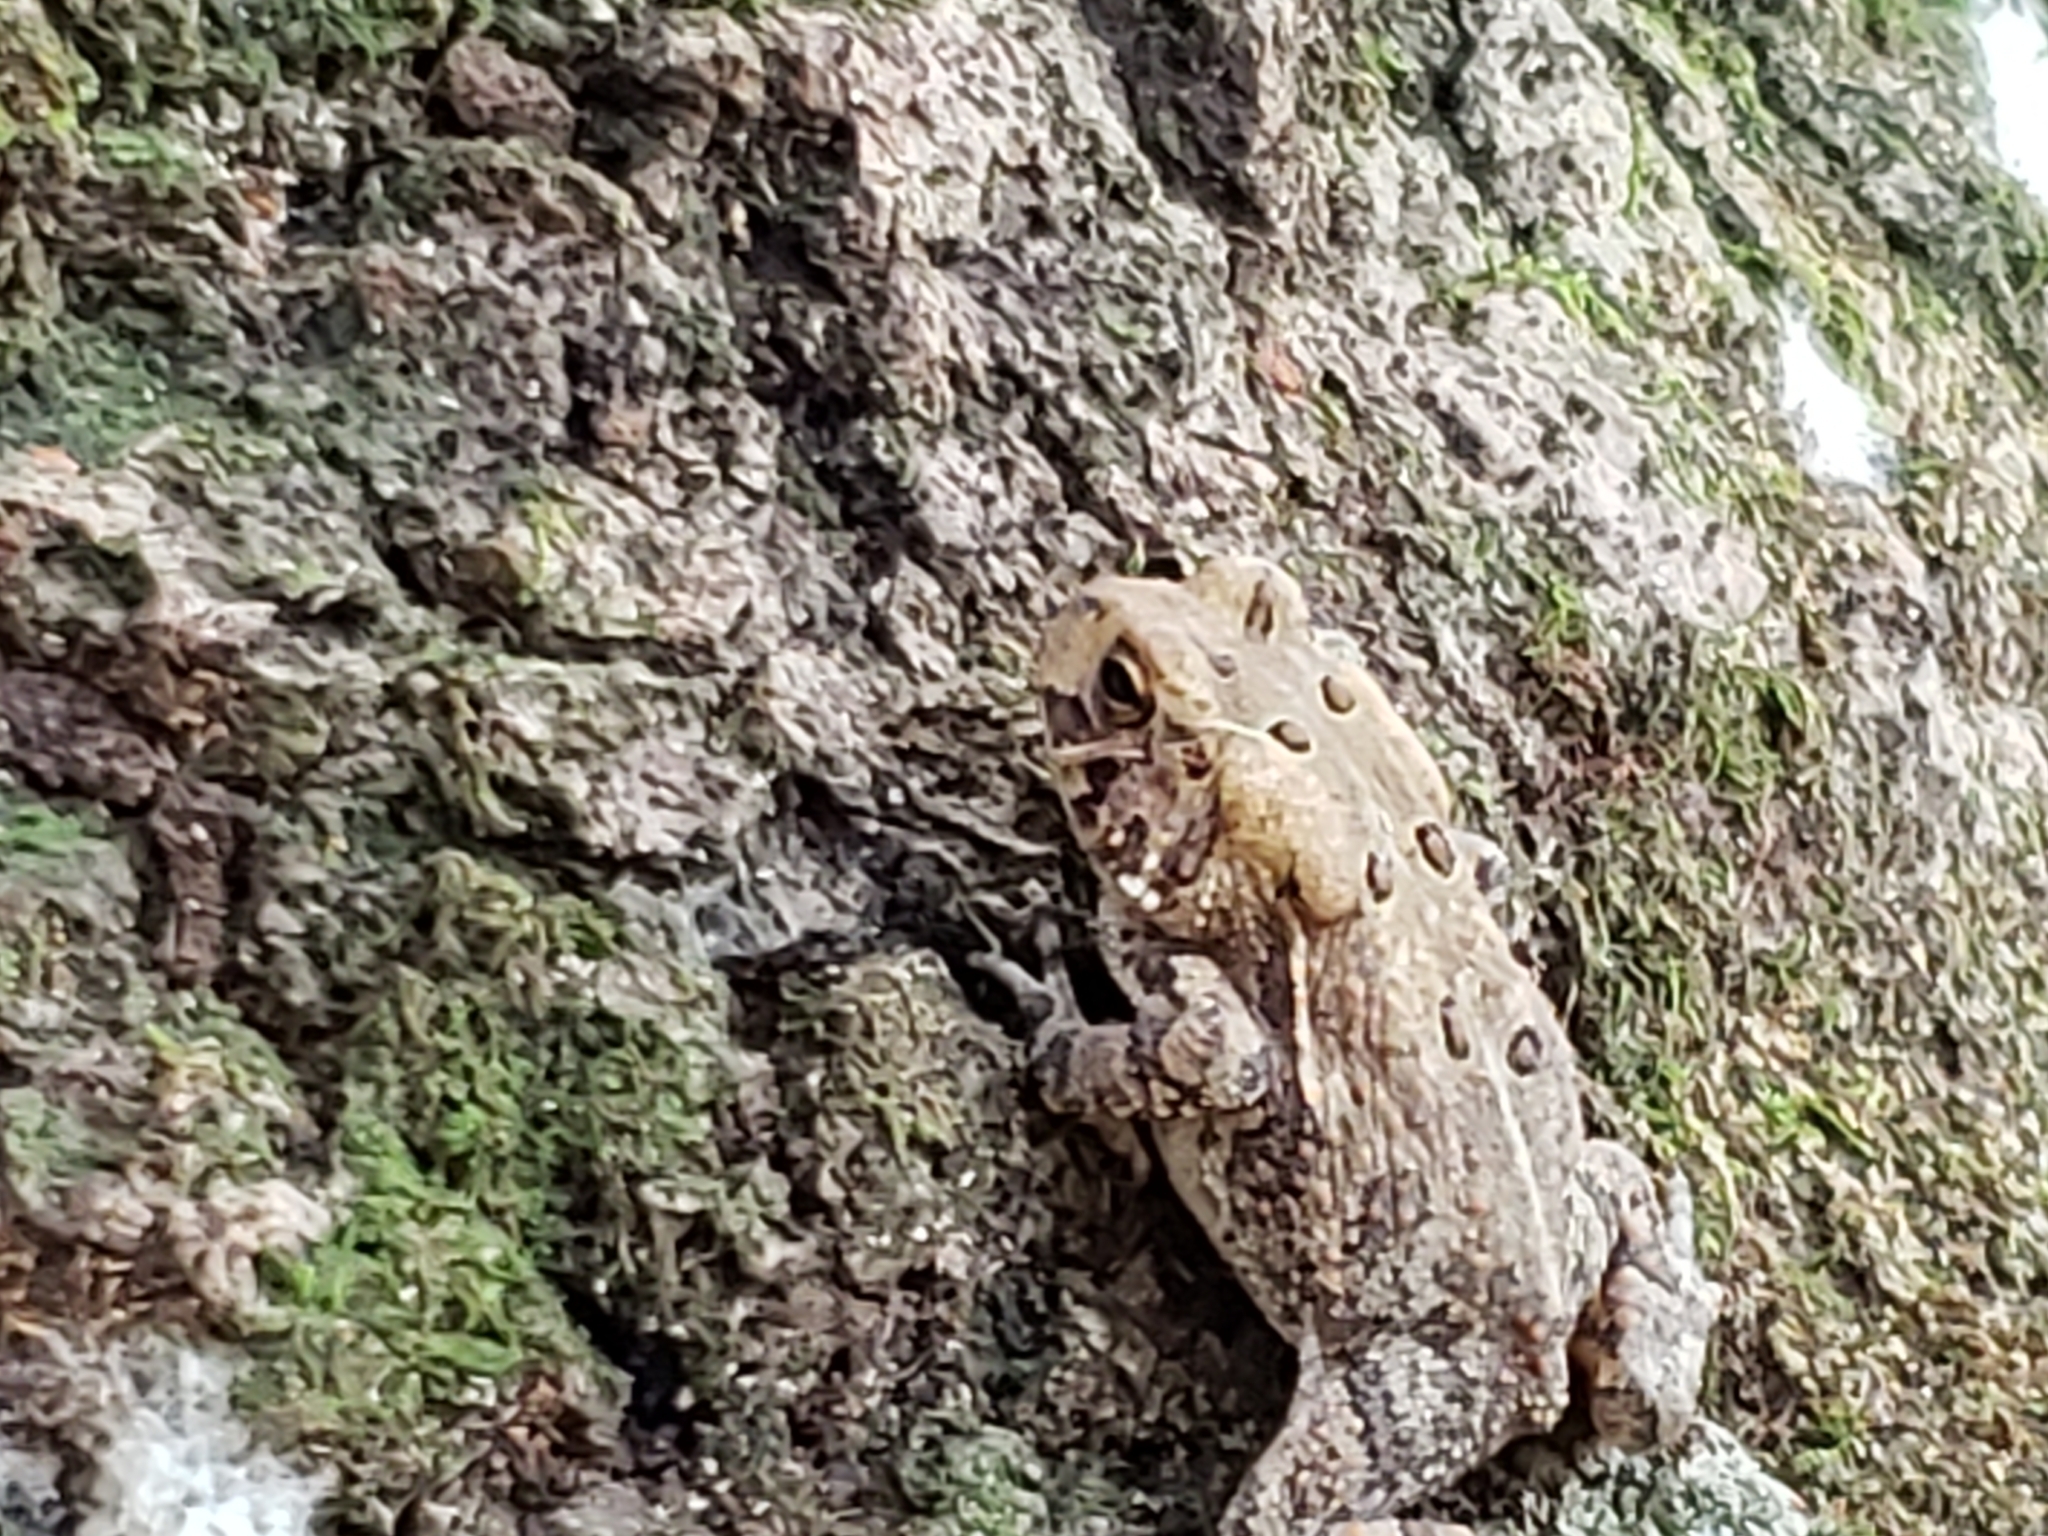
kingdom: Animalia
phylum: Chordata
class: Amphibia
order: Anura
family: Bufonidae
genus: Anaxyrus
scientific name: Anaxyrus americanus
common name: American toad
